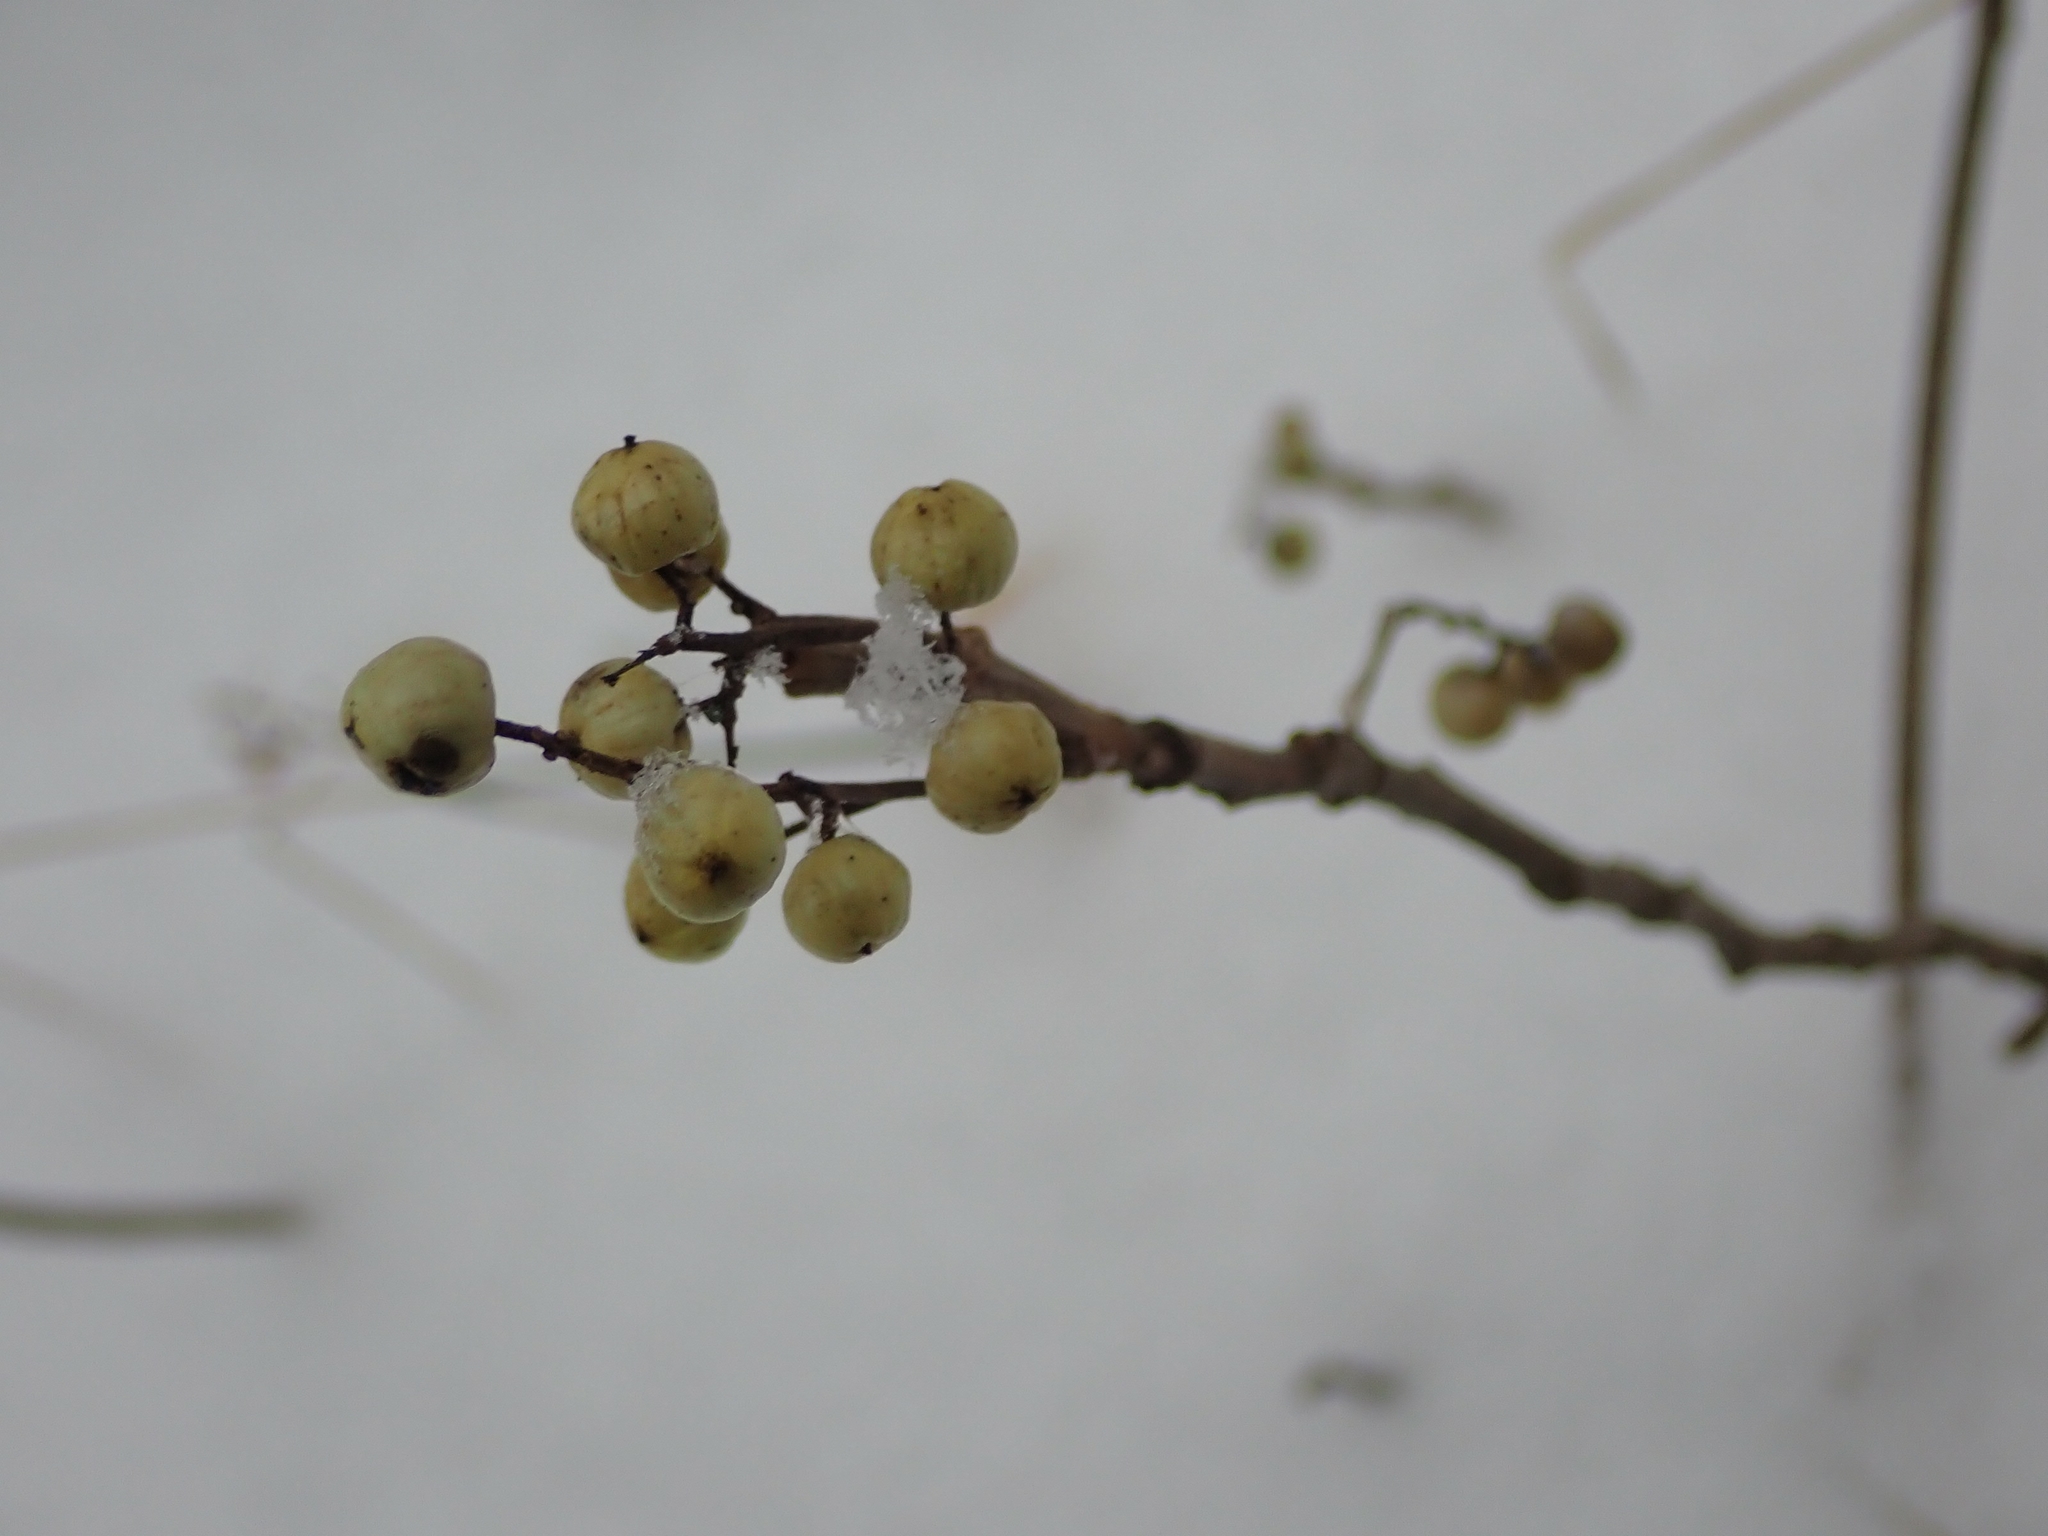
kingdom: Plantae
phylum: Tracheophyta
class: Magnoliopsida
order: Sapindales
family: Anacardiaceae
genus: Toxicodendron
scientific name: Toxicodendron rydbergii
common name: Rydberg's poison-ivy
